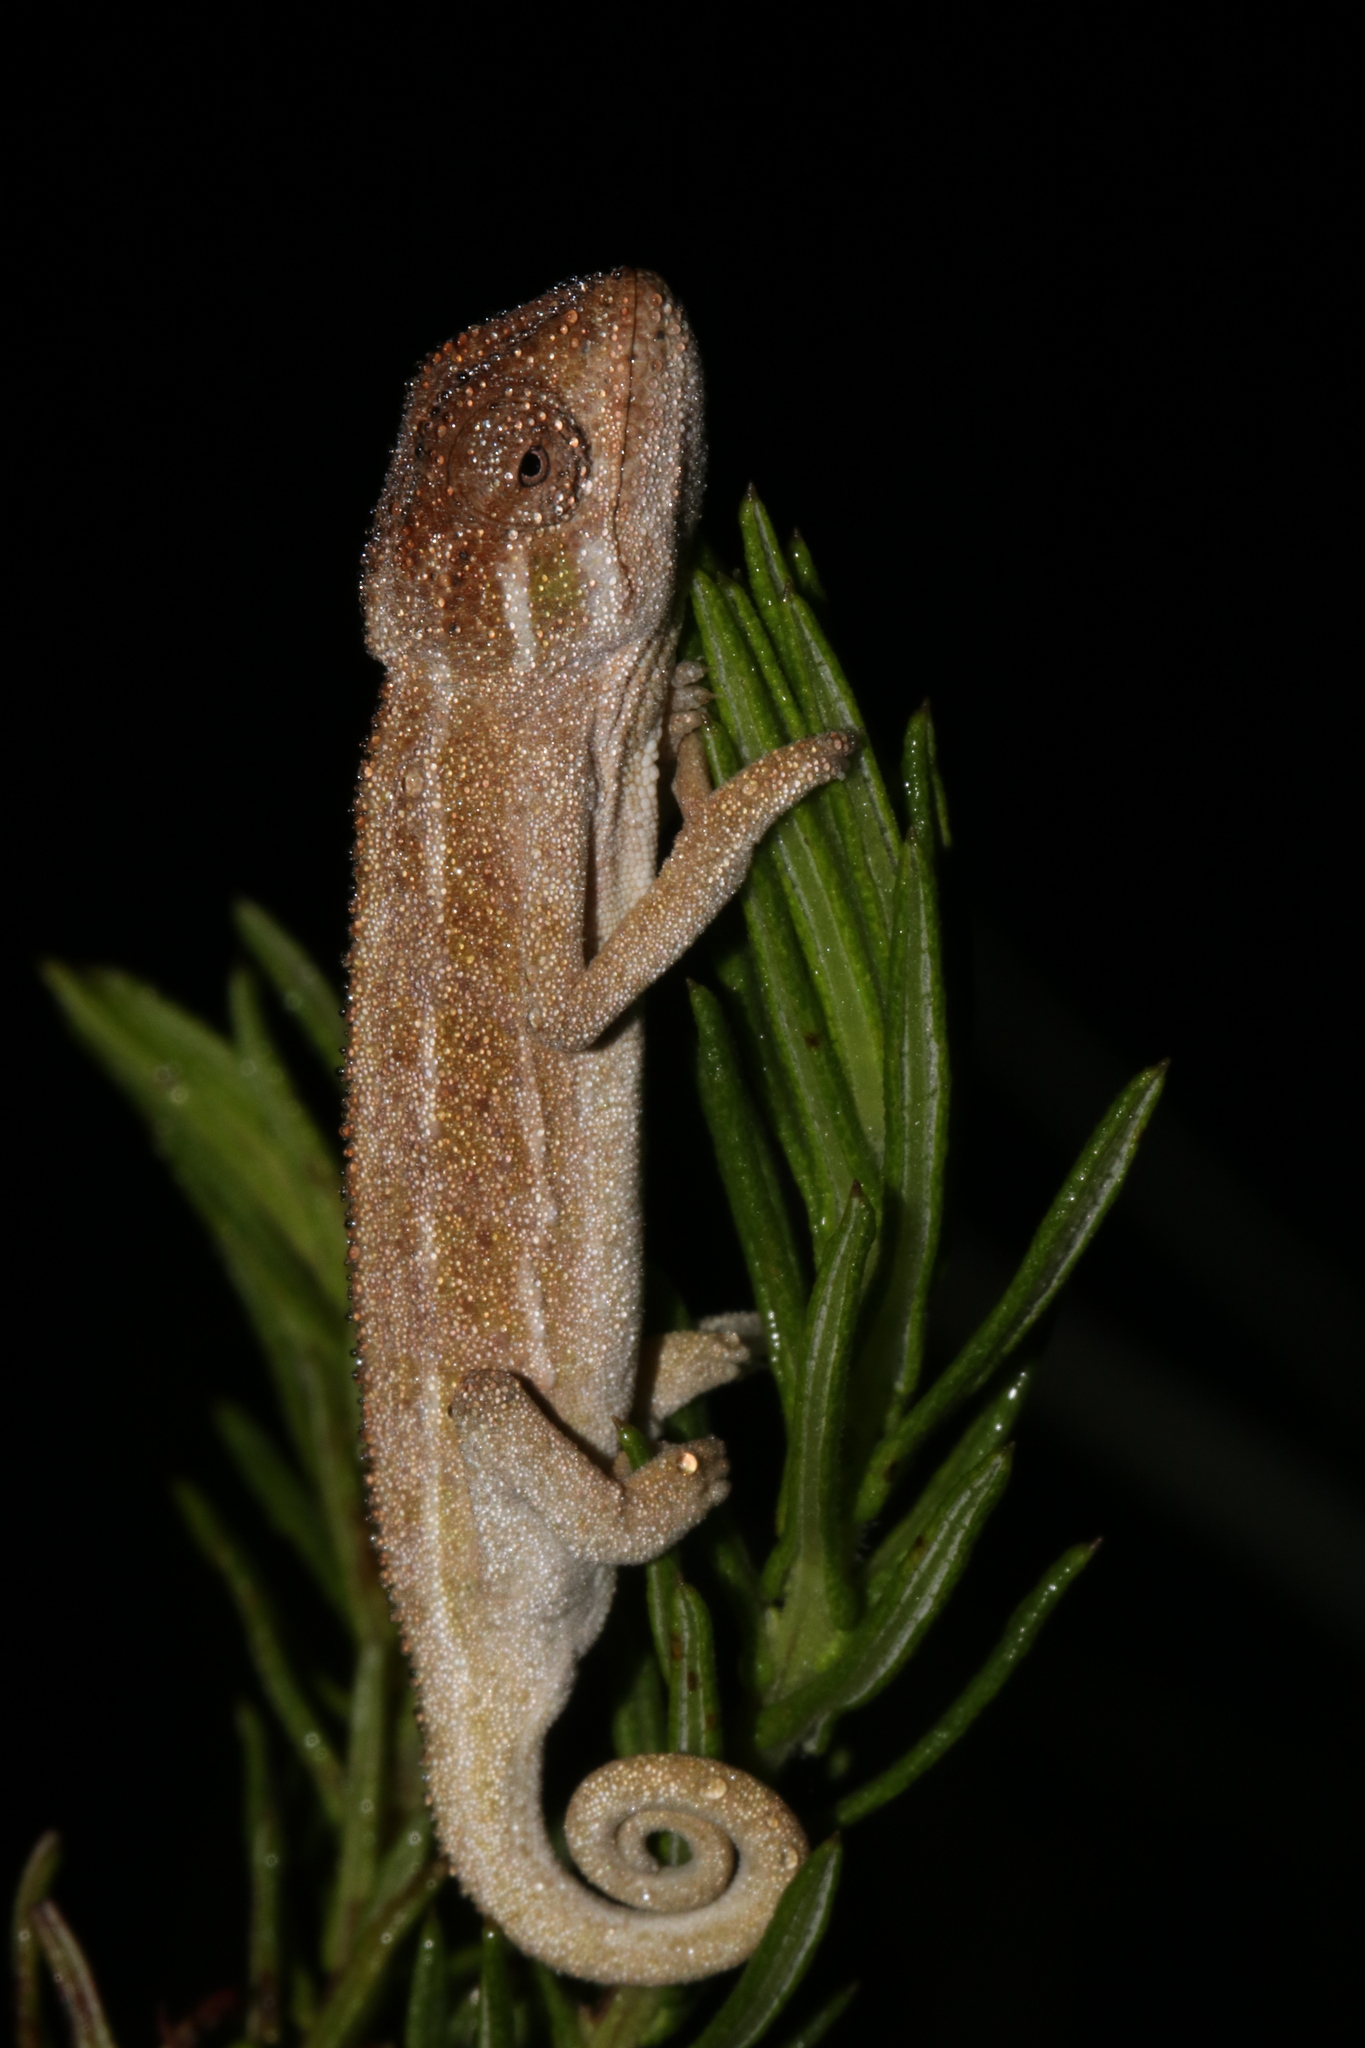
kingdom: Animalia
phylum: Chordata
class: Squamata
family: Chamaeleonidae
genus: Trioceros
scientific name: Trioceros goetzei
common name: Ilolo chameleon
